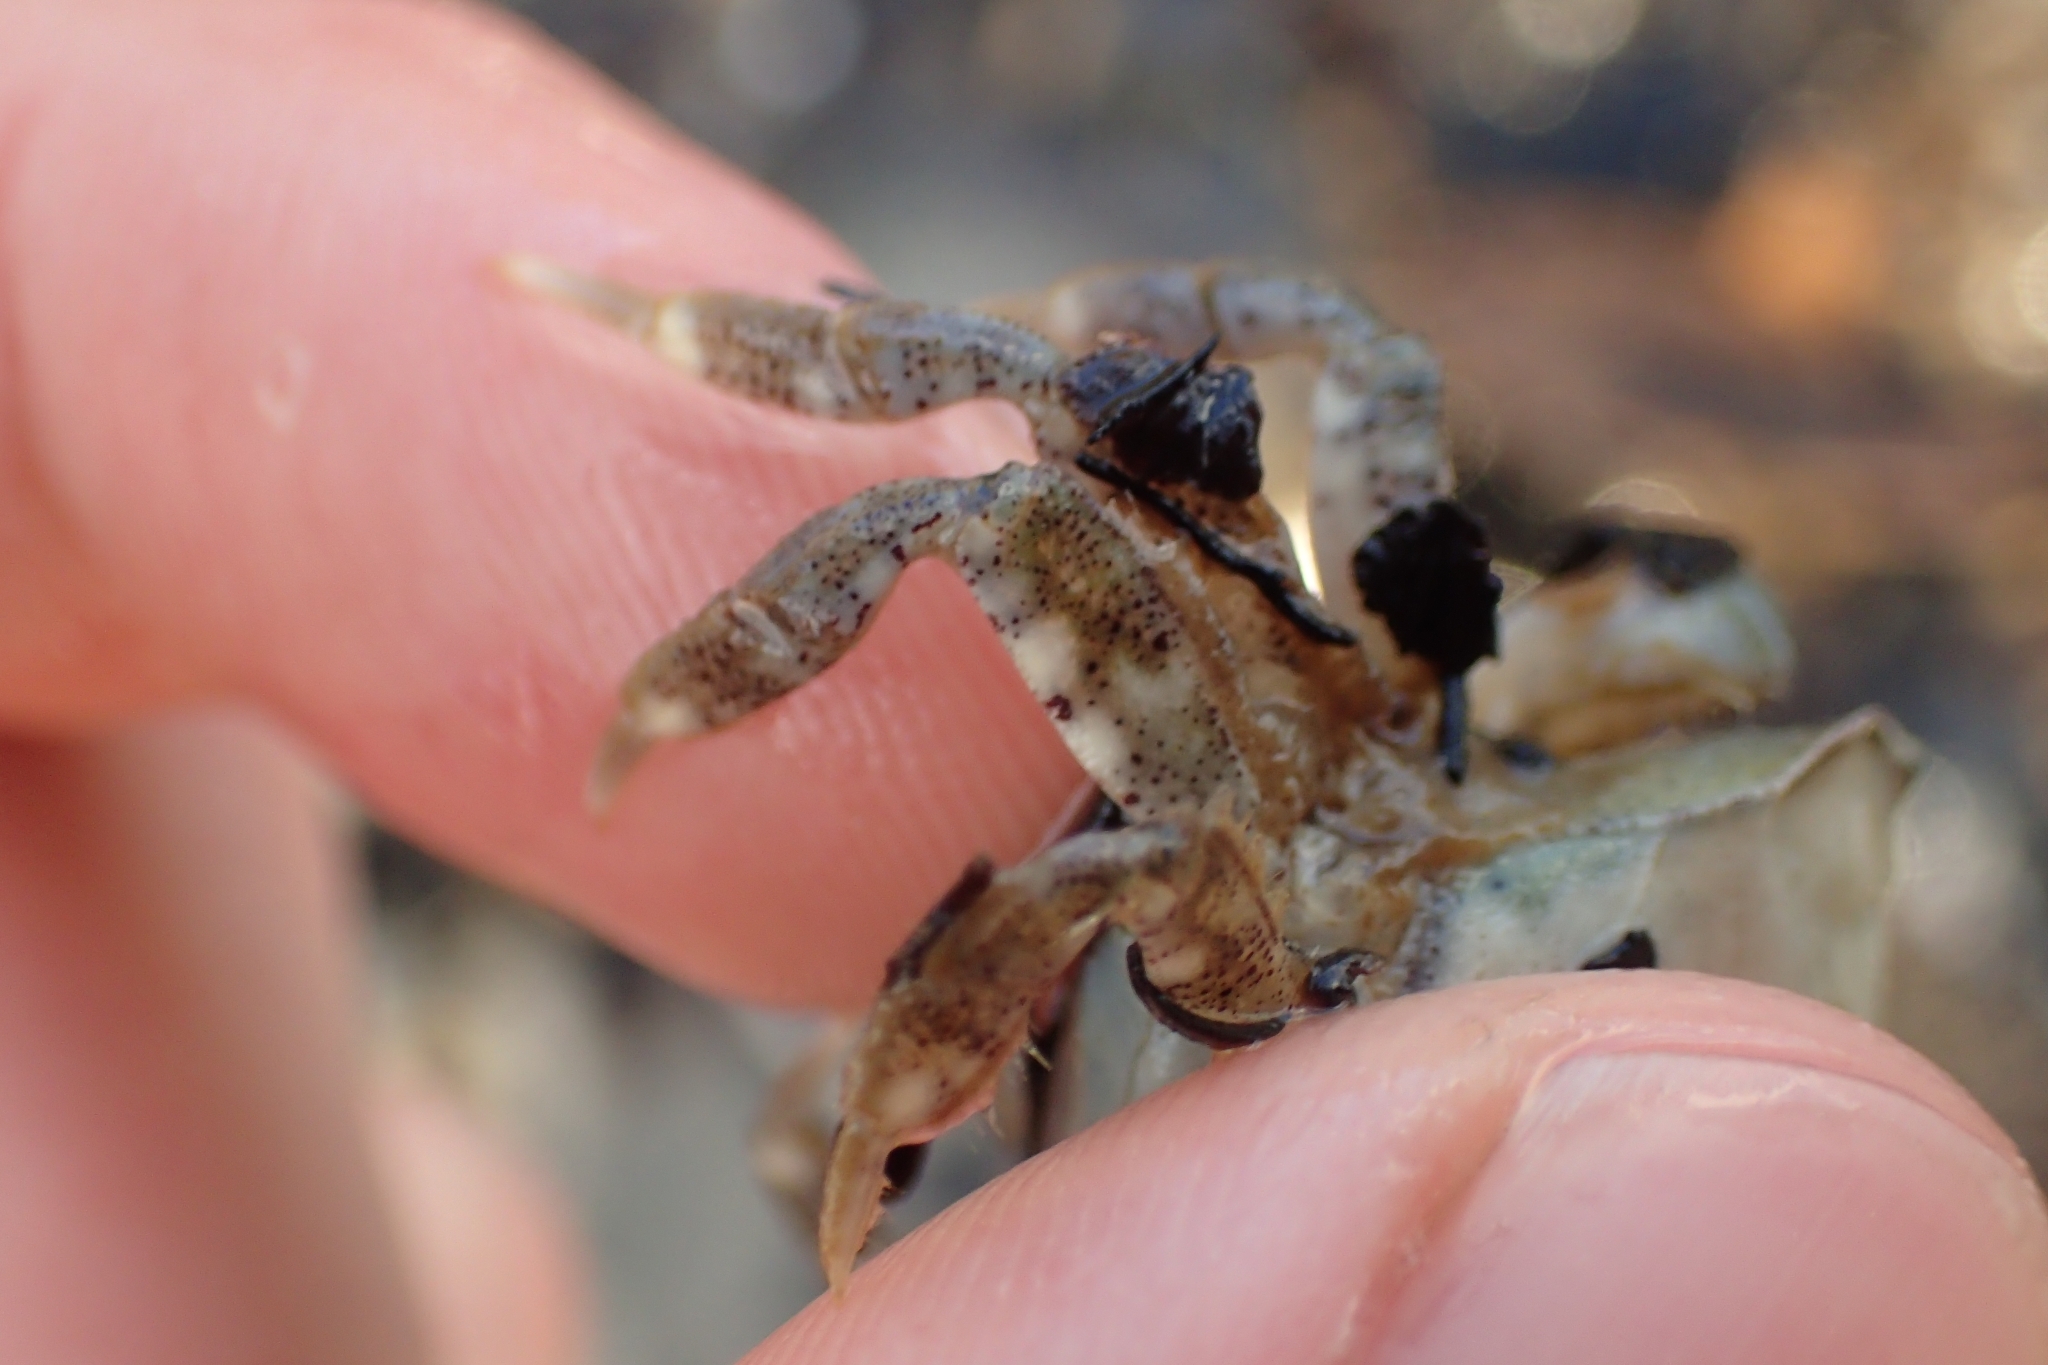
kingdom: Animalia
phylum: Arthropoda
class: Malacostraca
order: Decapoda
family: Varunidae
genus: Hemigrapsus
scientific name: Hemigrapsus crenulatus
